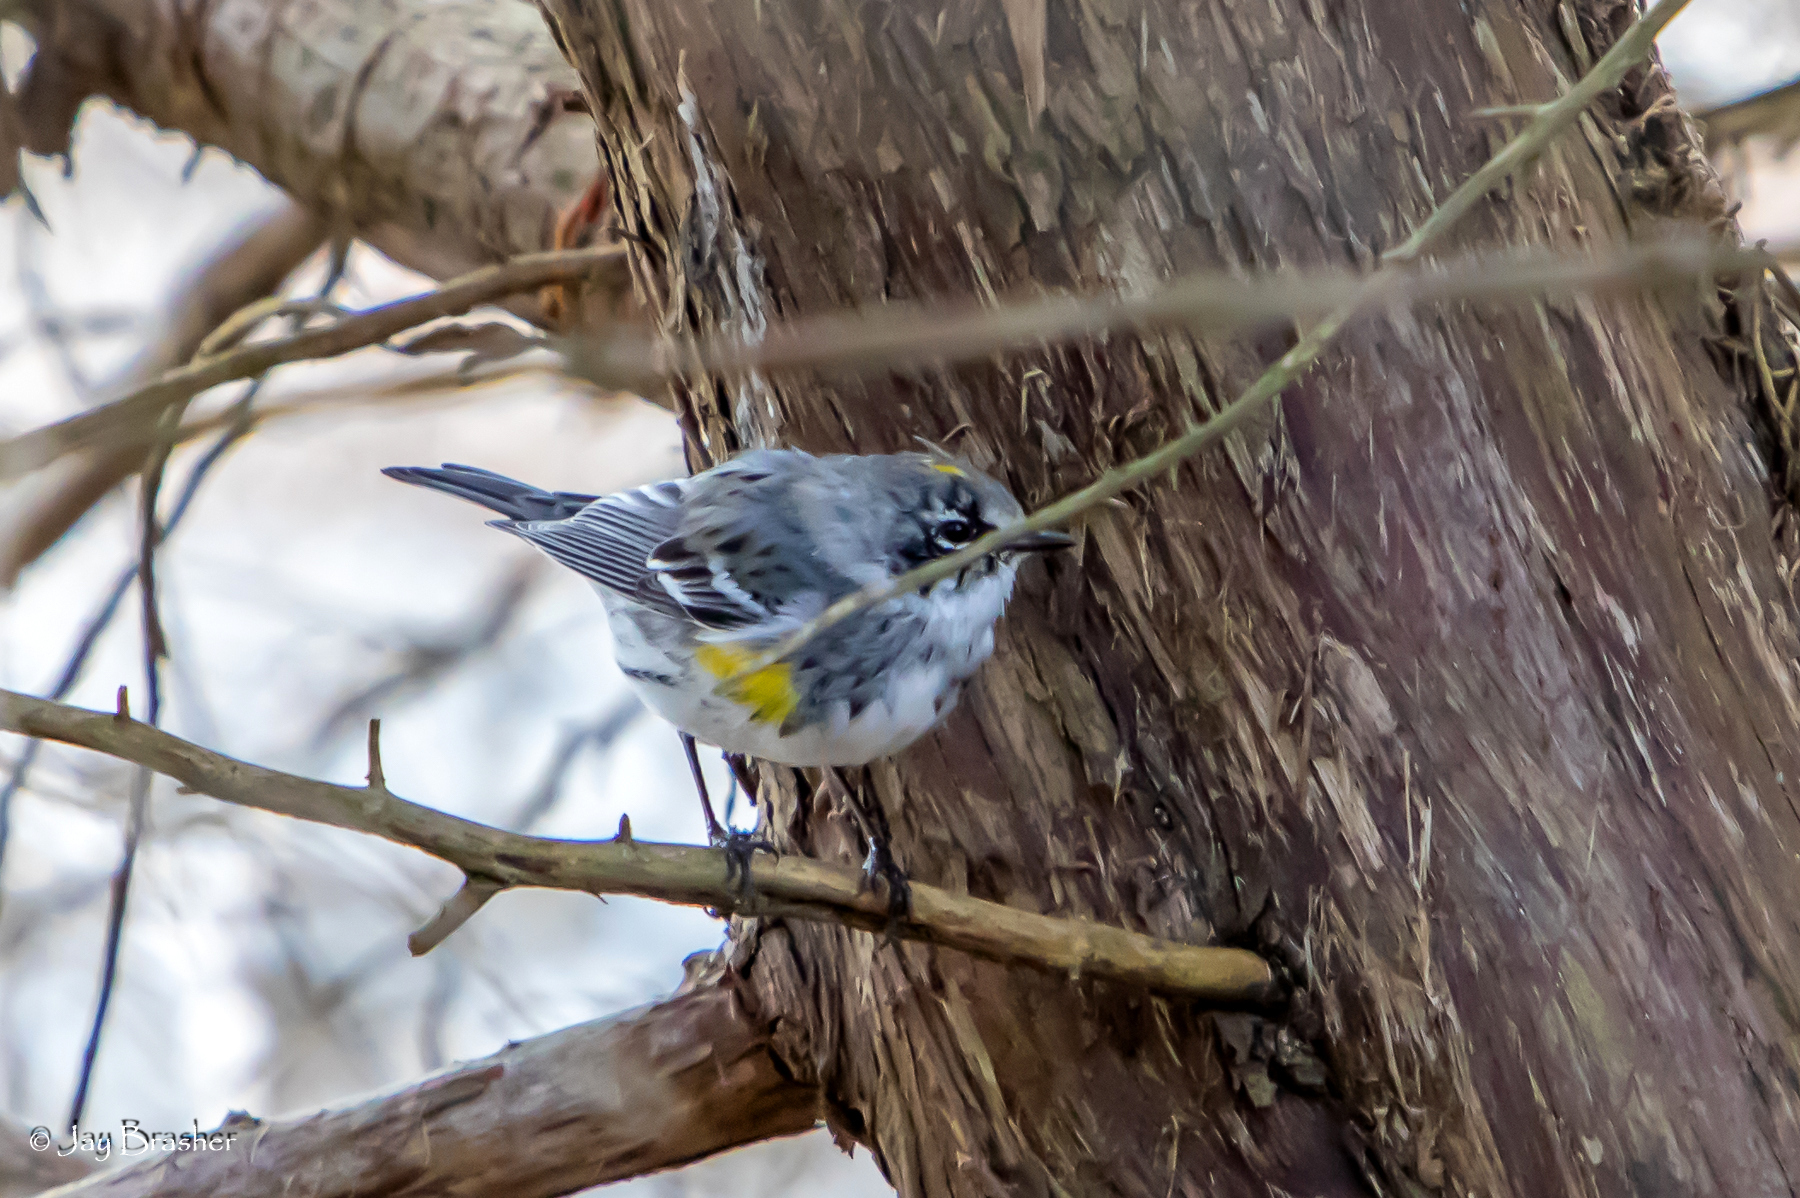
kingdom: Animalia
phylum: Chordata
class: Aves
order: Passeriformes
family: Parulidae
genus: Setophaga
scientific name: Setophaga coronata
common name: Myrtle warbler
